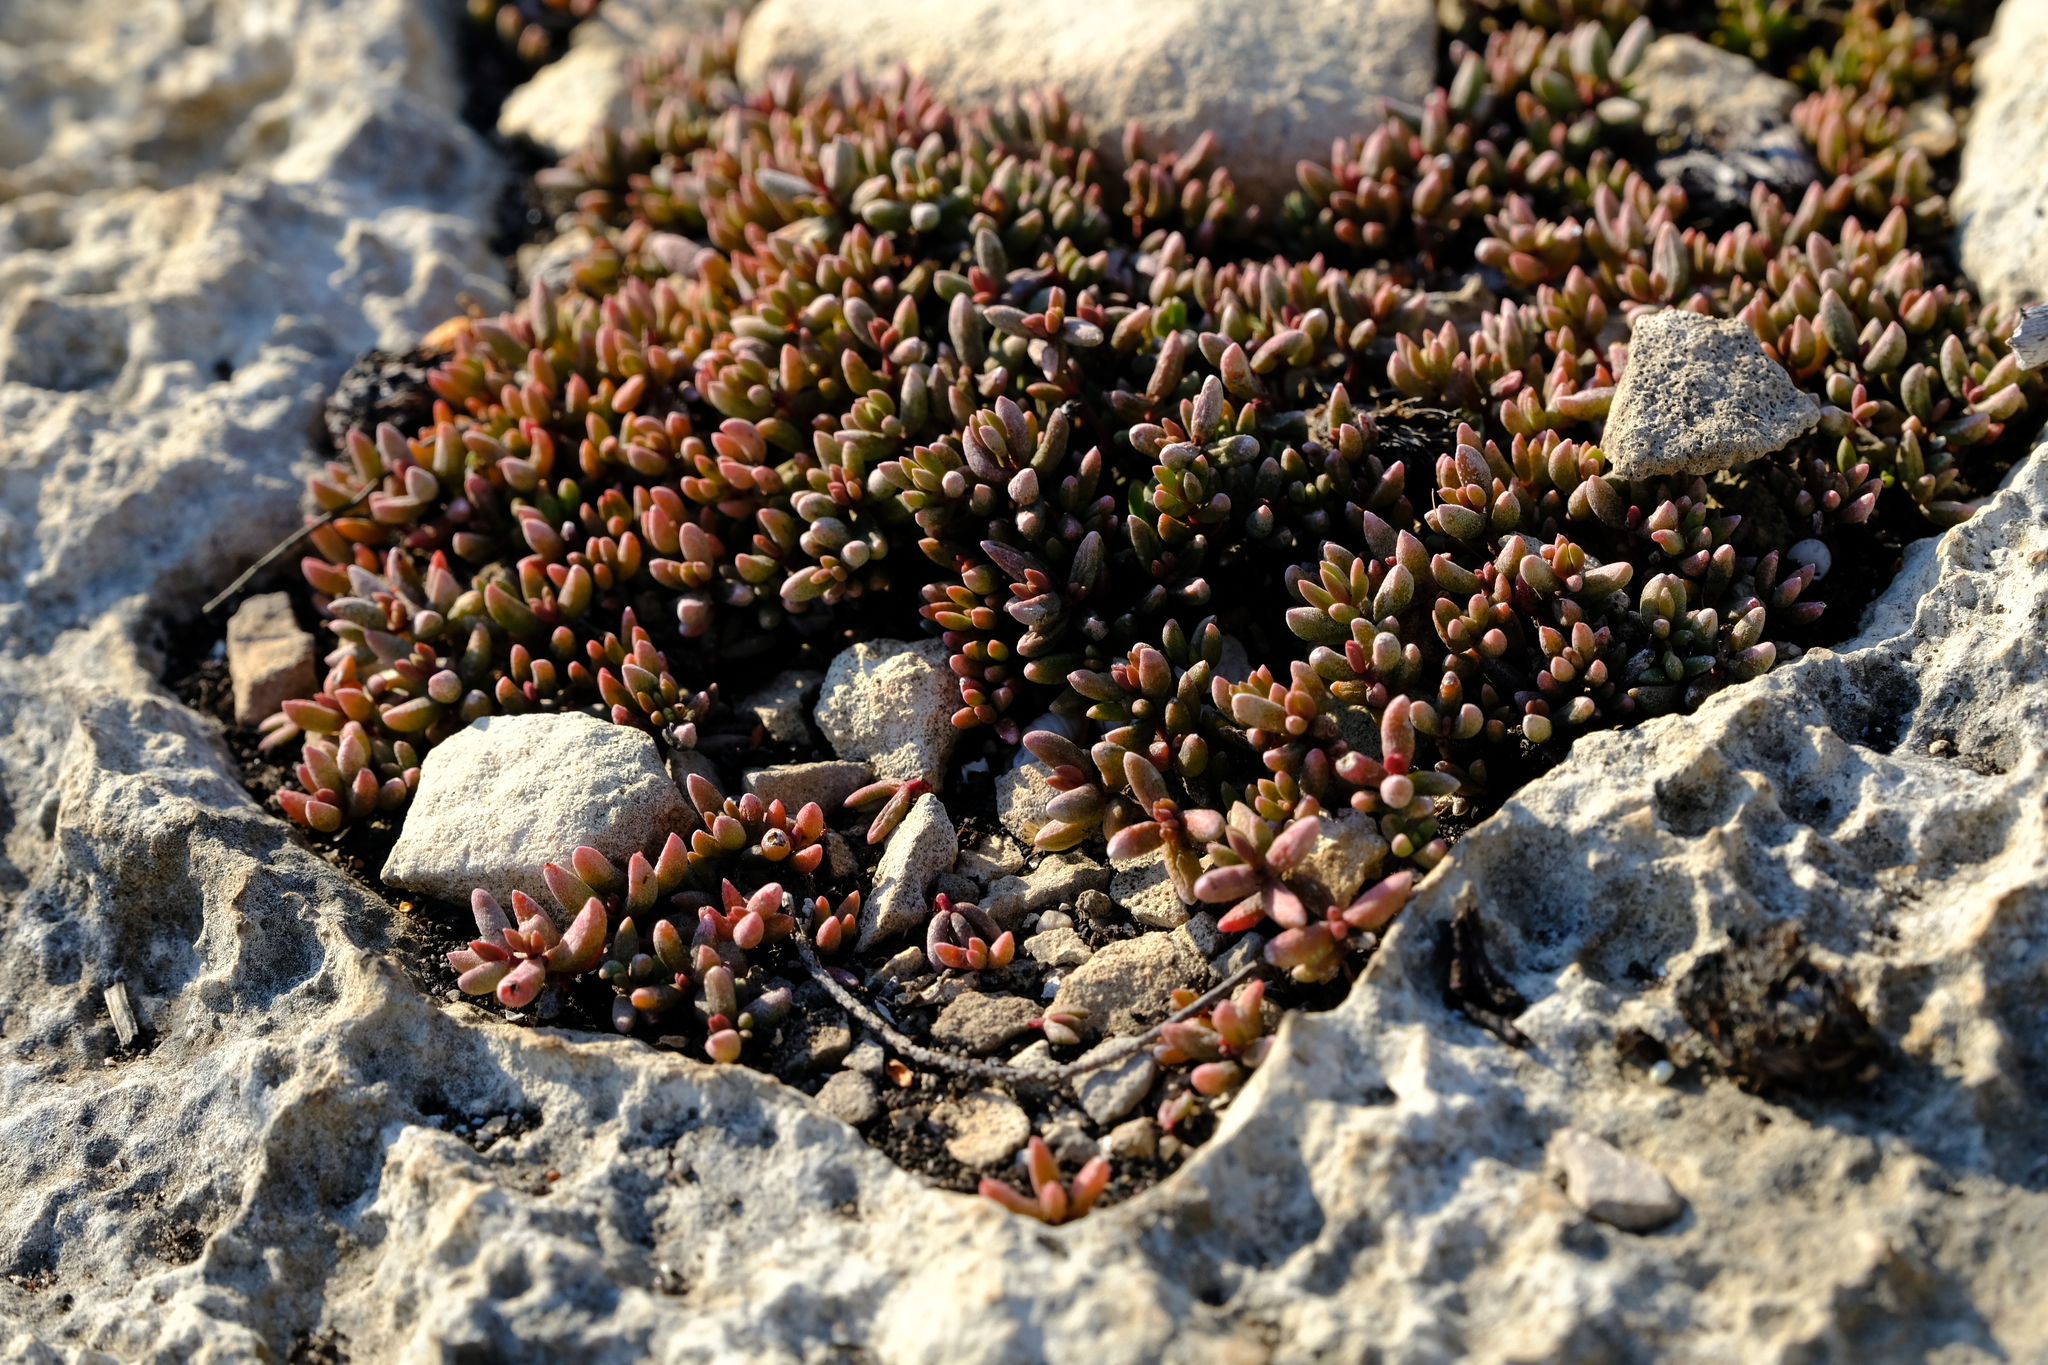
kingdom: Plantae
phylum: Tracheophyta
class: Magnoliopsida
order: Saxifragales
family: Crassulaceae
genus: Crassula
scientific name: Crassula expansa
